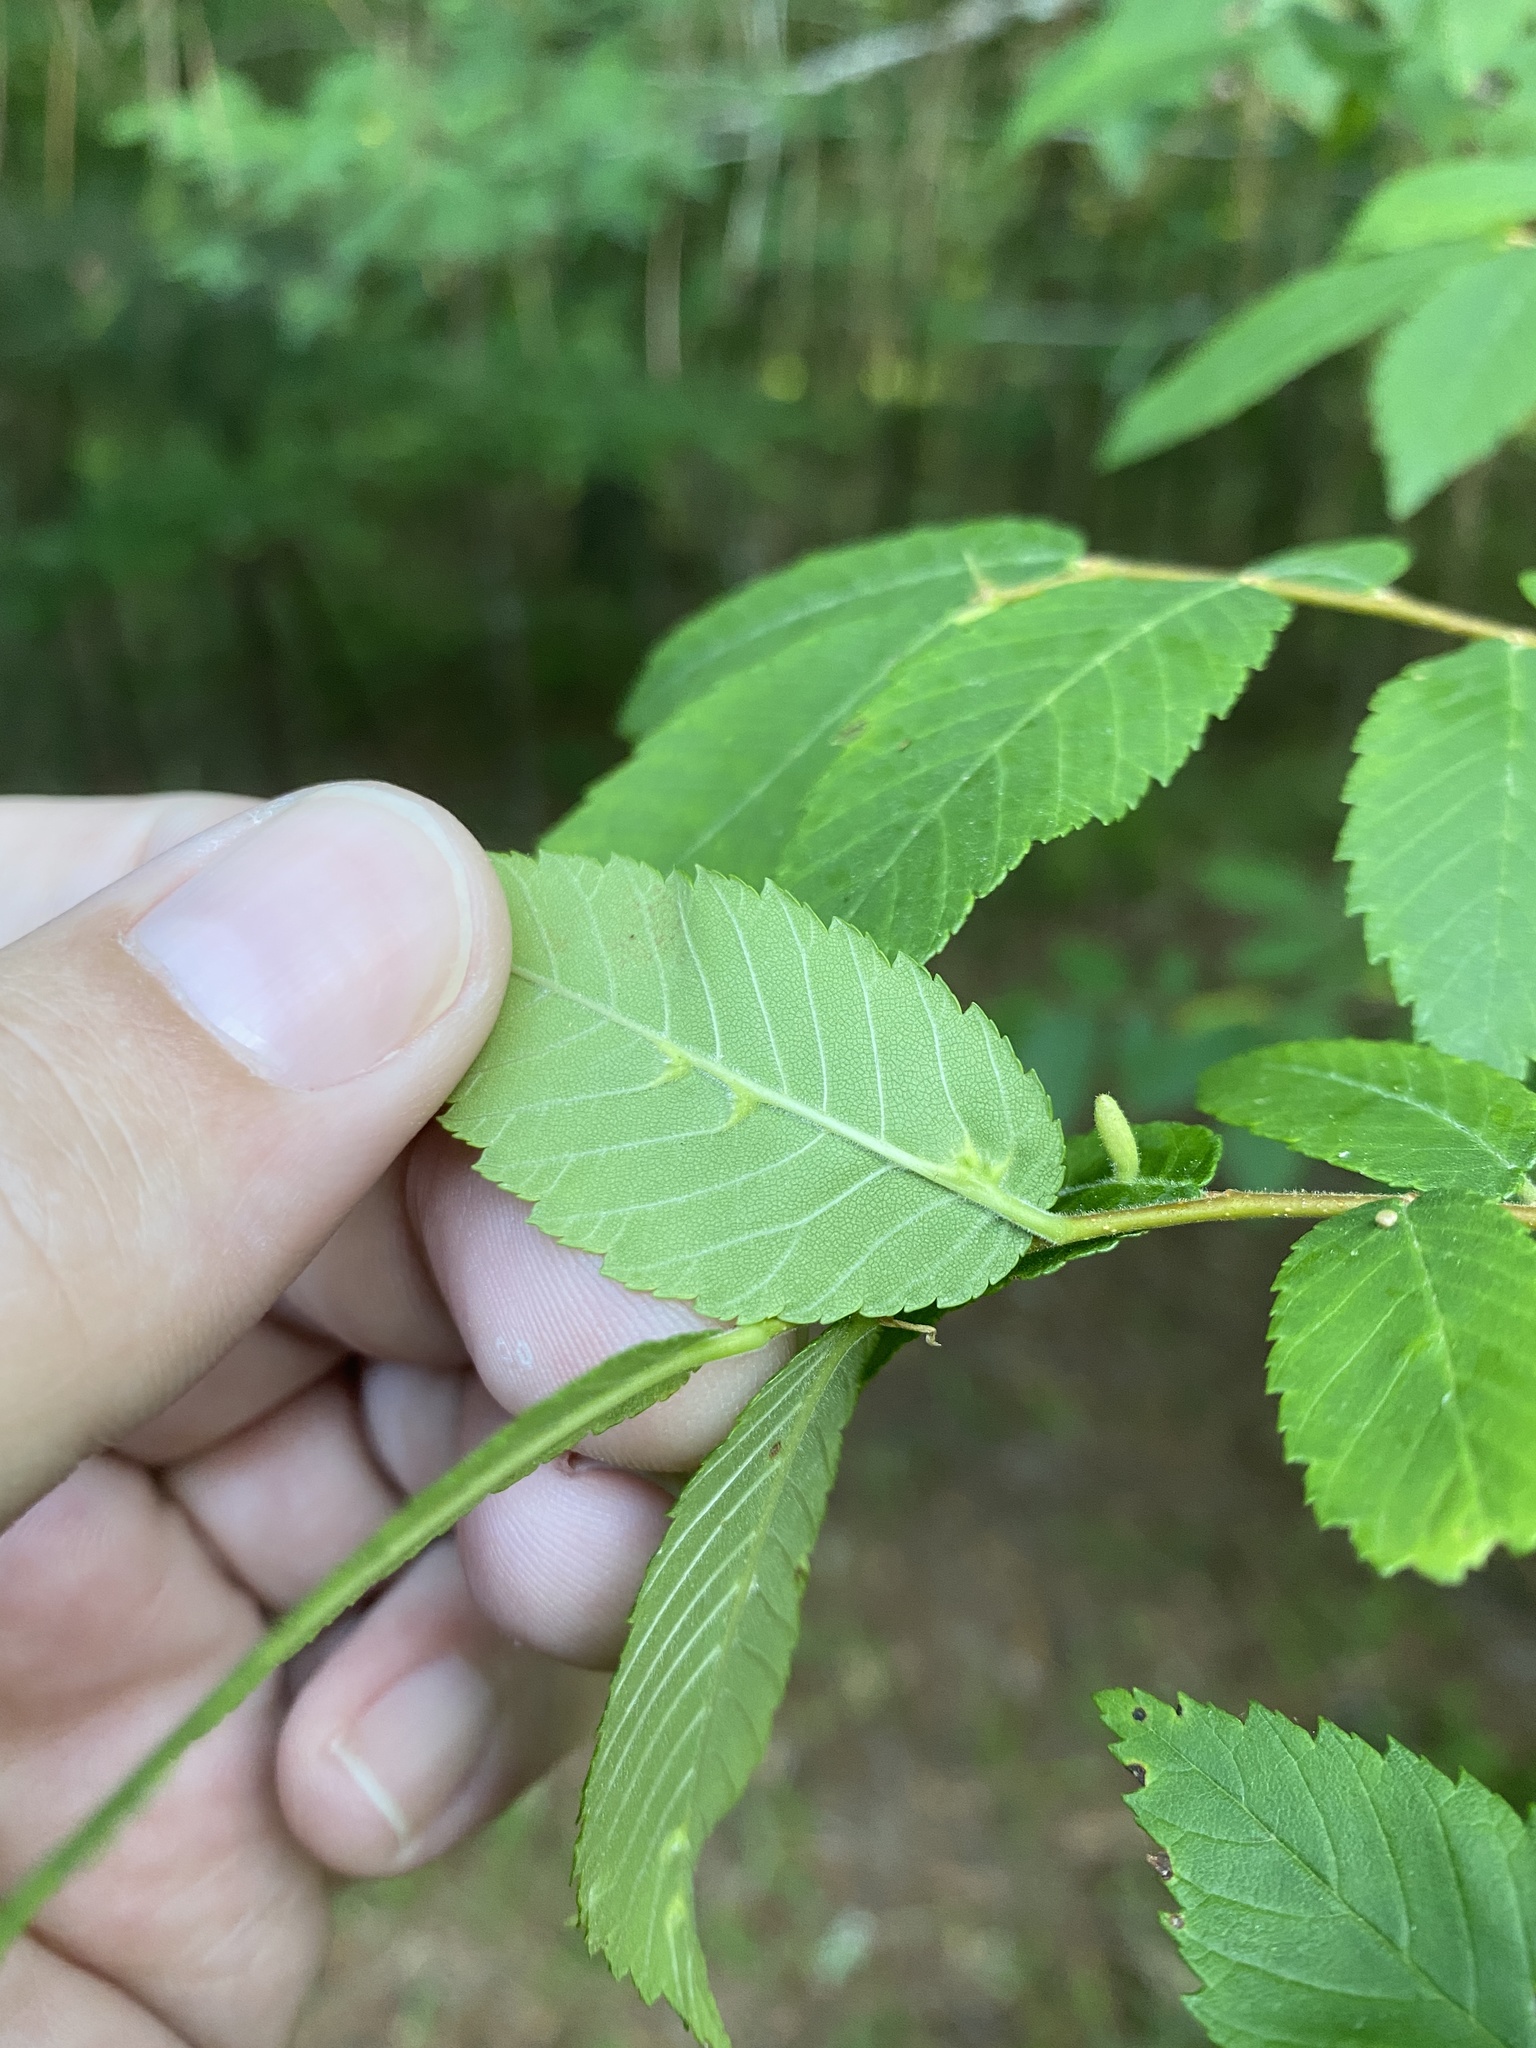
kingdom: Animalia
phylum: Arthropoda
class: Arachnida
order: Trombidiformes
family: Eriophyidae
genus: Aceria
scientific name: Aceria
